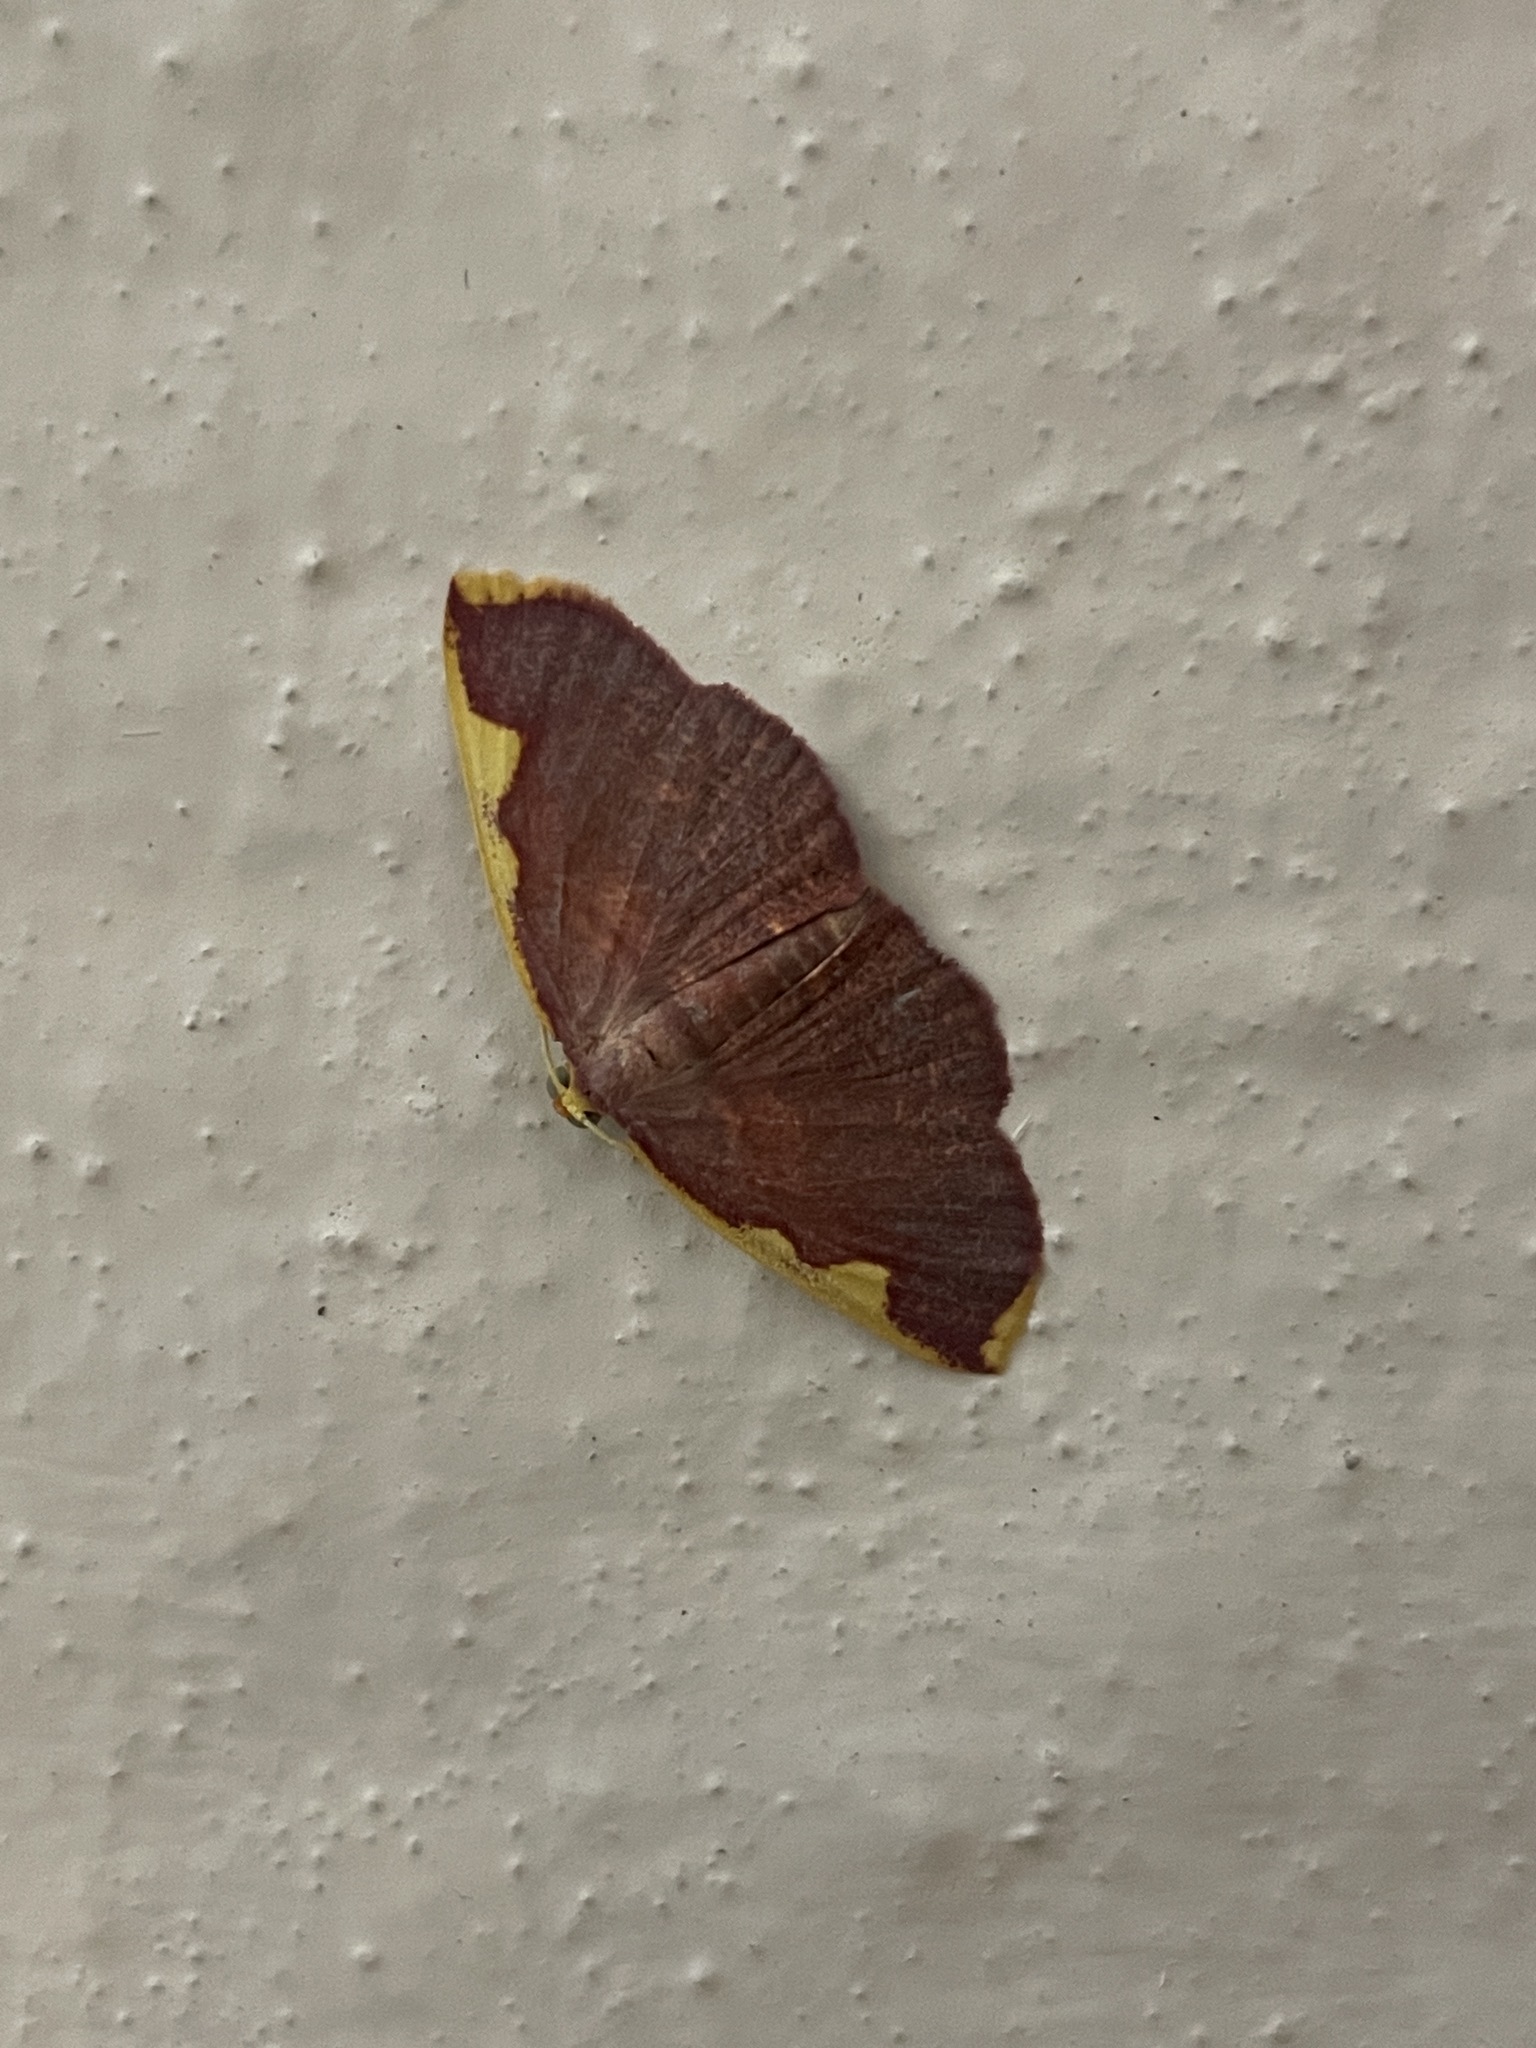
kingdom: Animalia
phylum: Arthropoda
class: Insecta
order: Lepidoptera
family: Geometridae
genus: Nothomiza
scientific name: Nothomiza flavicosta
